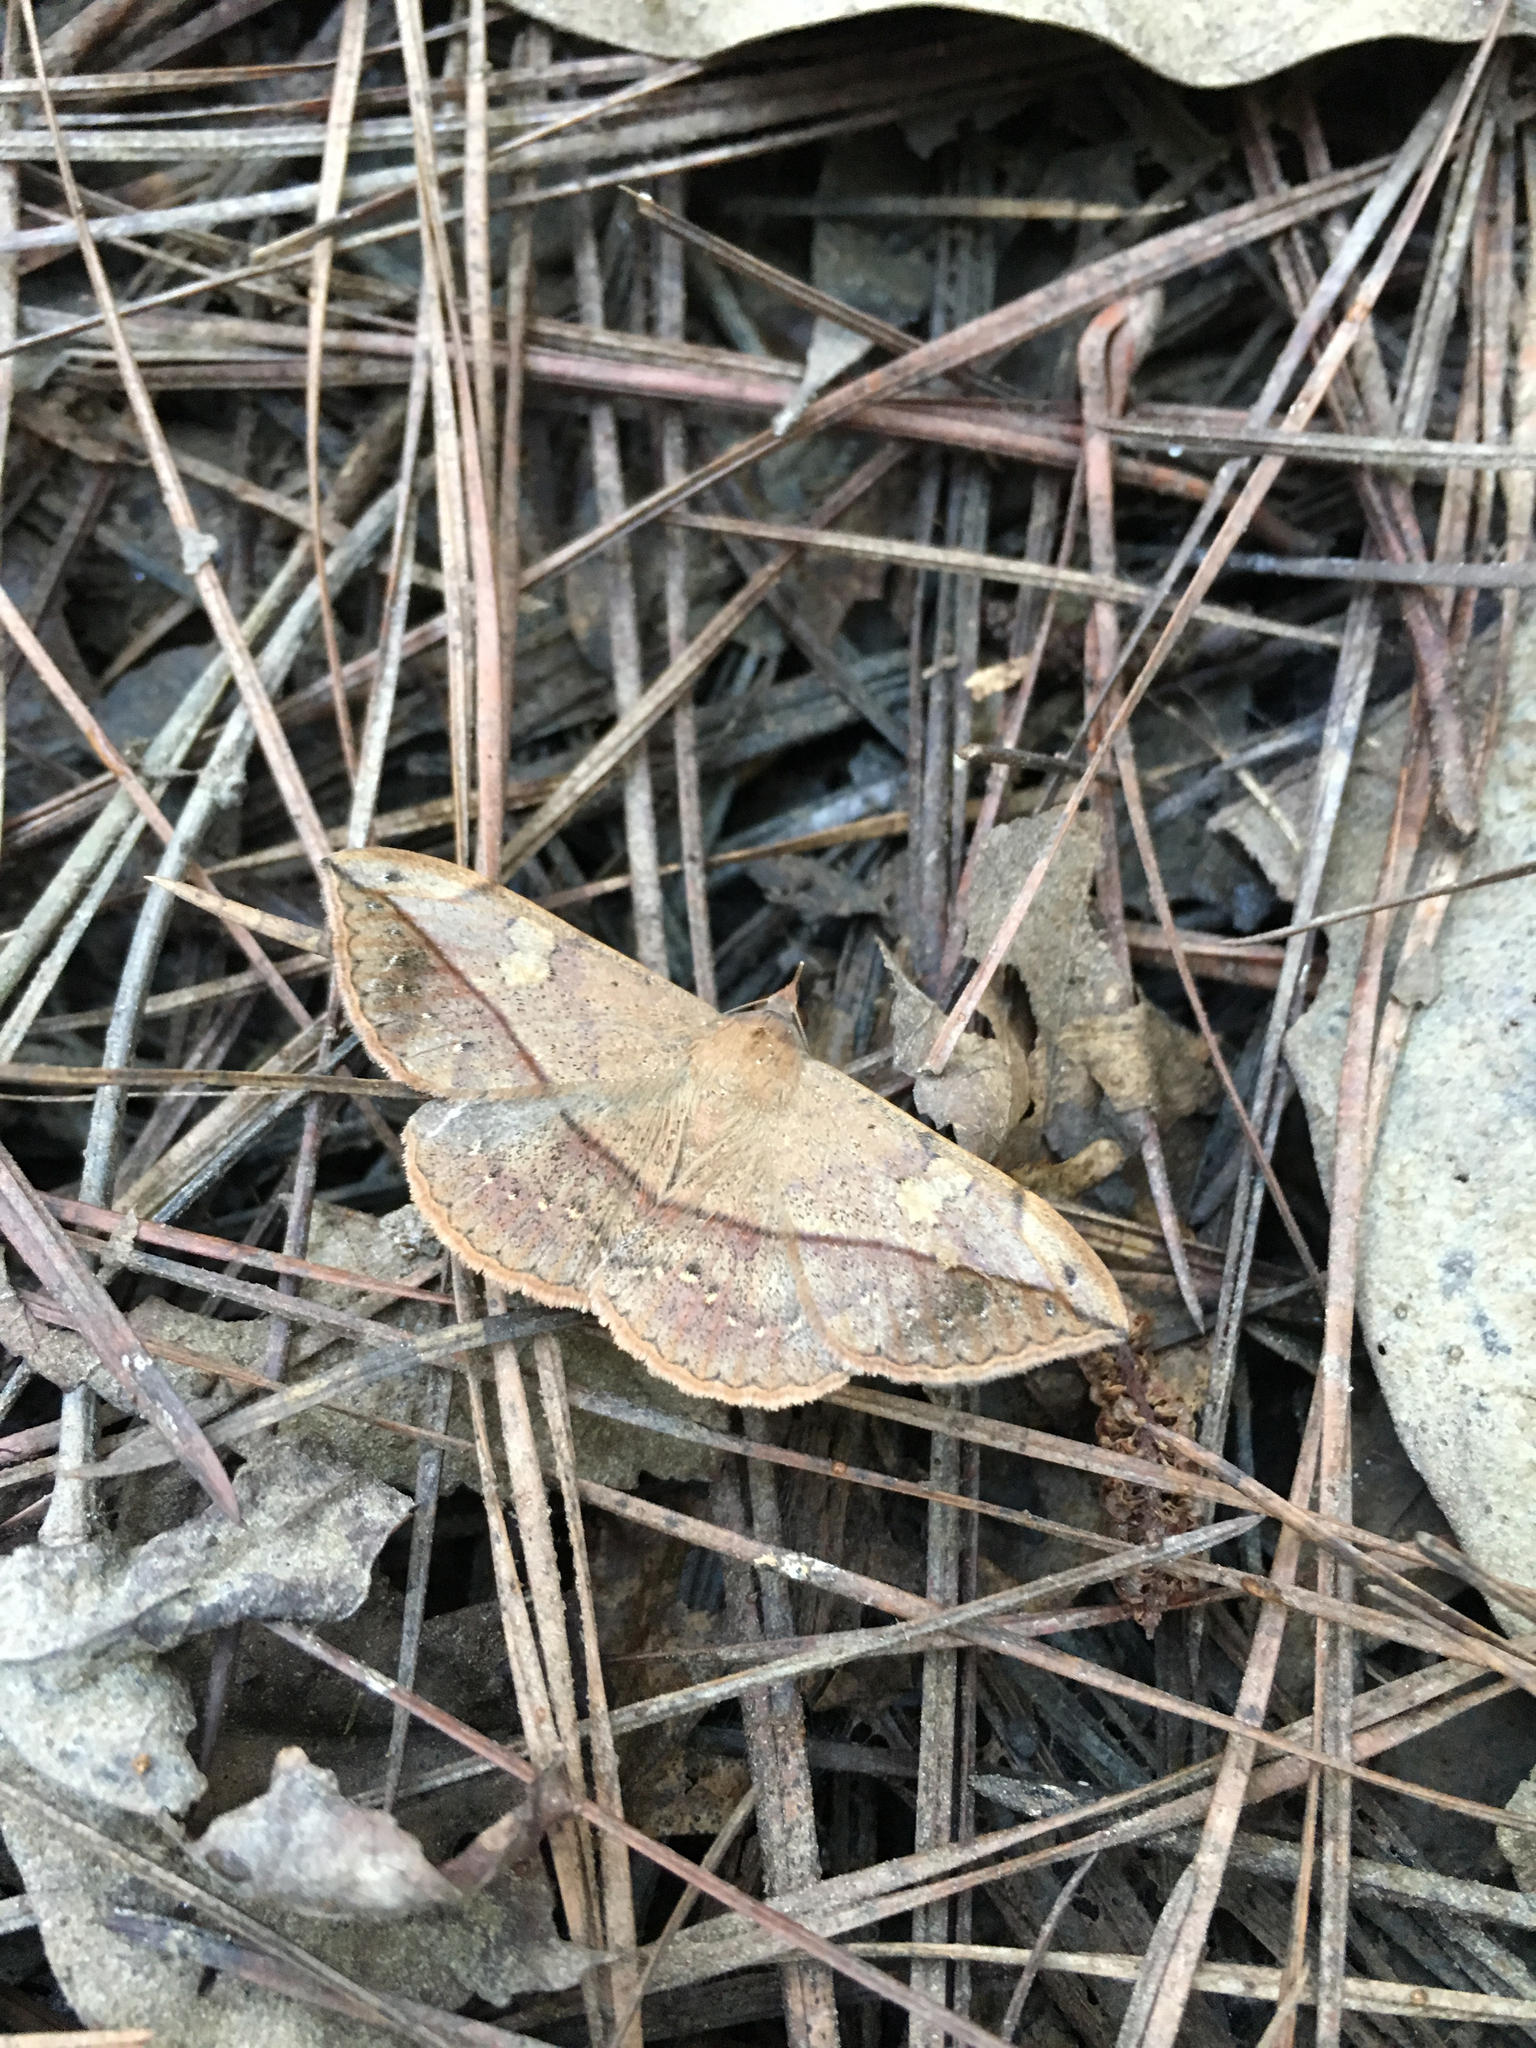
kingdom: Animalia
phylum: Arthropoda
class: Insecta
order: Lepidoptera
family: Erebidae
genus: Anticarsia
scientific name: Anticarsia gemmatalis
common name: Cutworm moth
